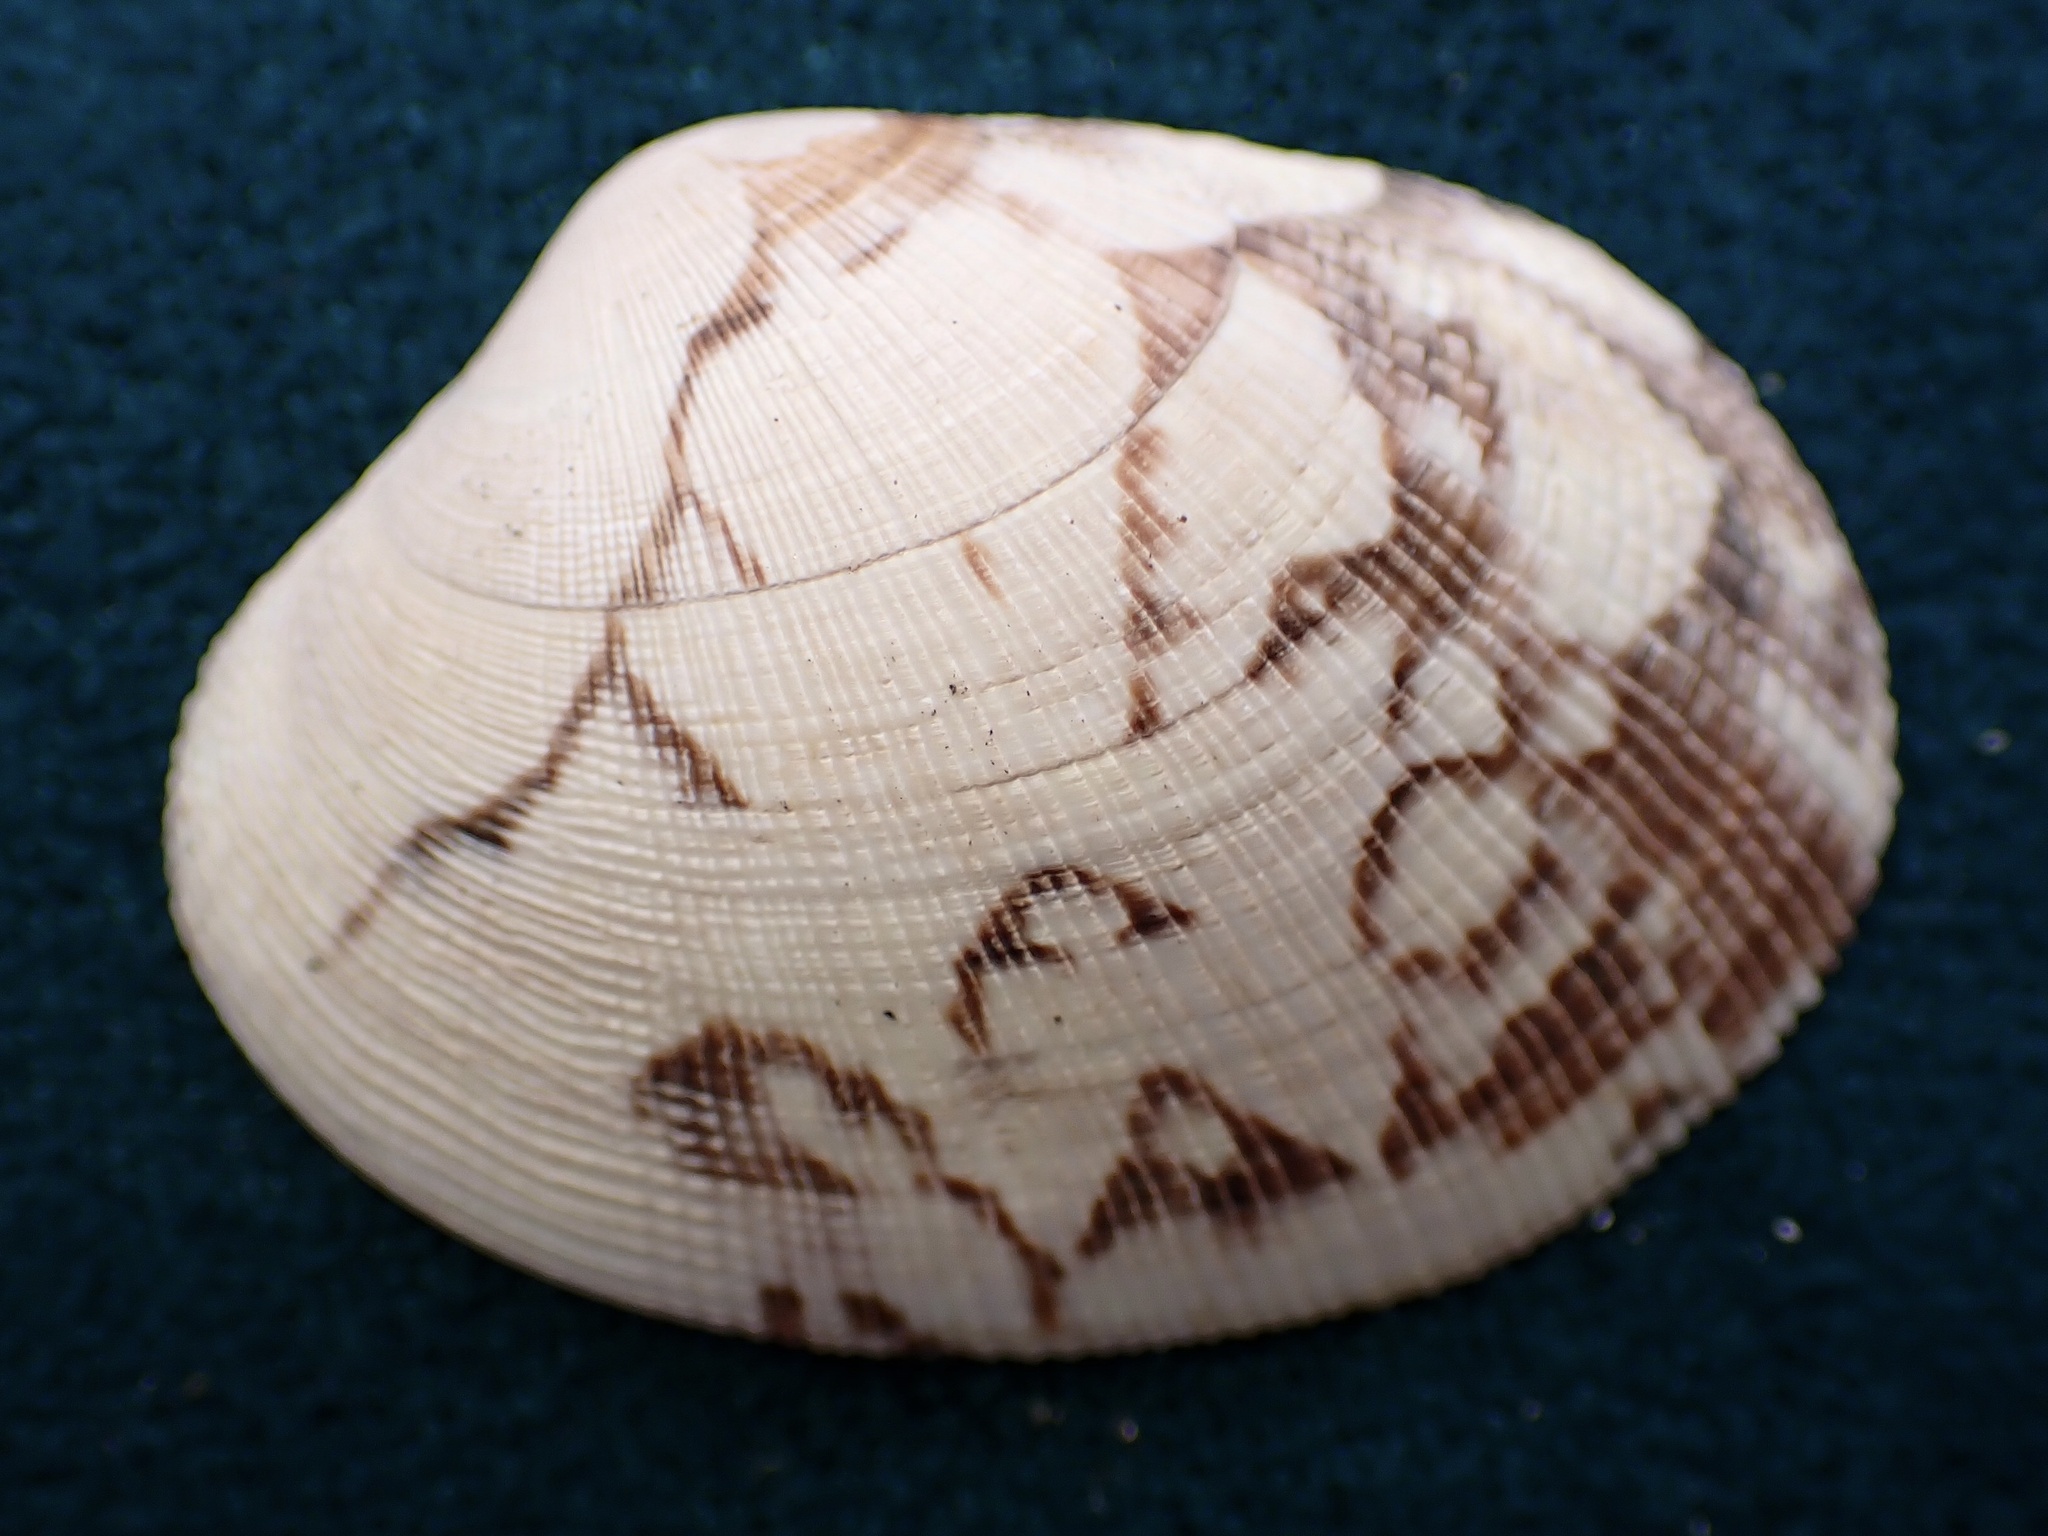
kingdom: Animalia
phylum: Mollusca
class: Bivalvia
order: Venerida
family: Veneridae
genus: Ruditapes
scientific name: Ruditapes philippinarum
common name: Manila clam
